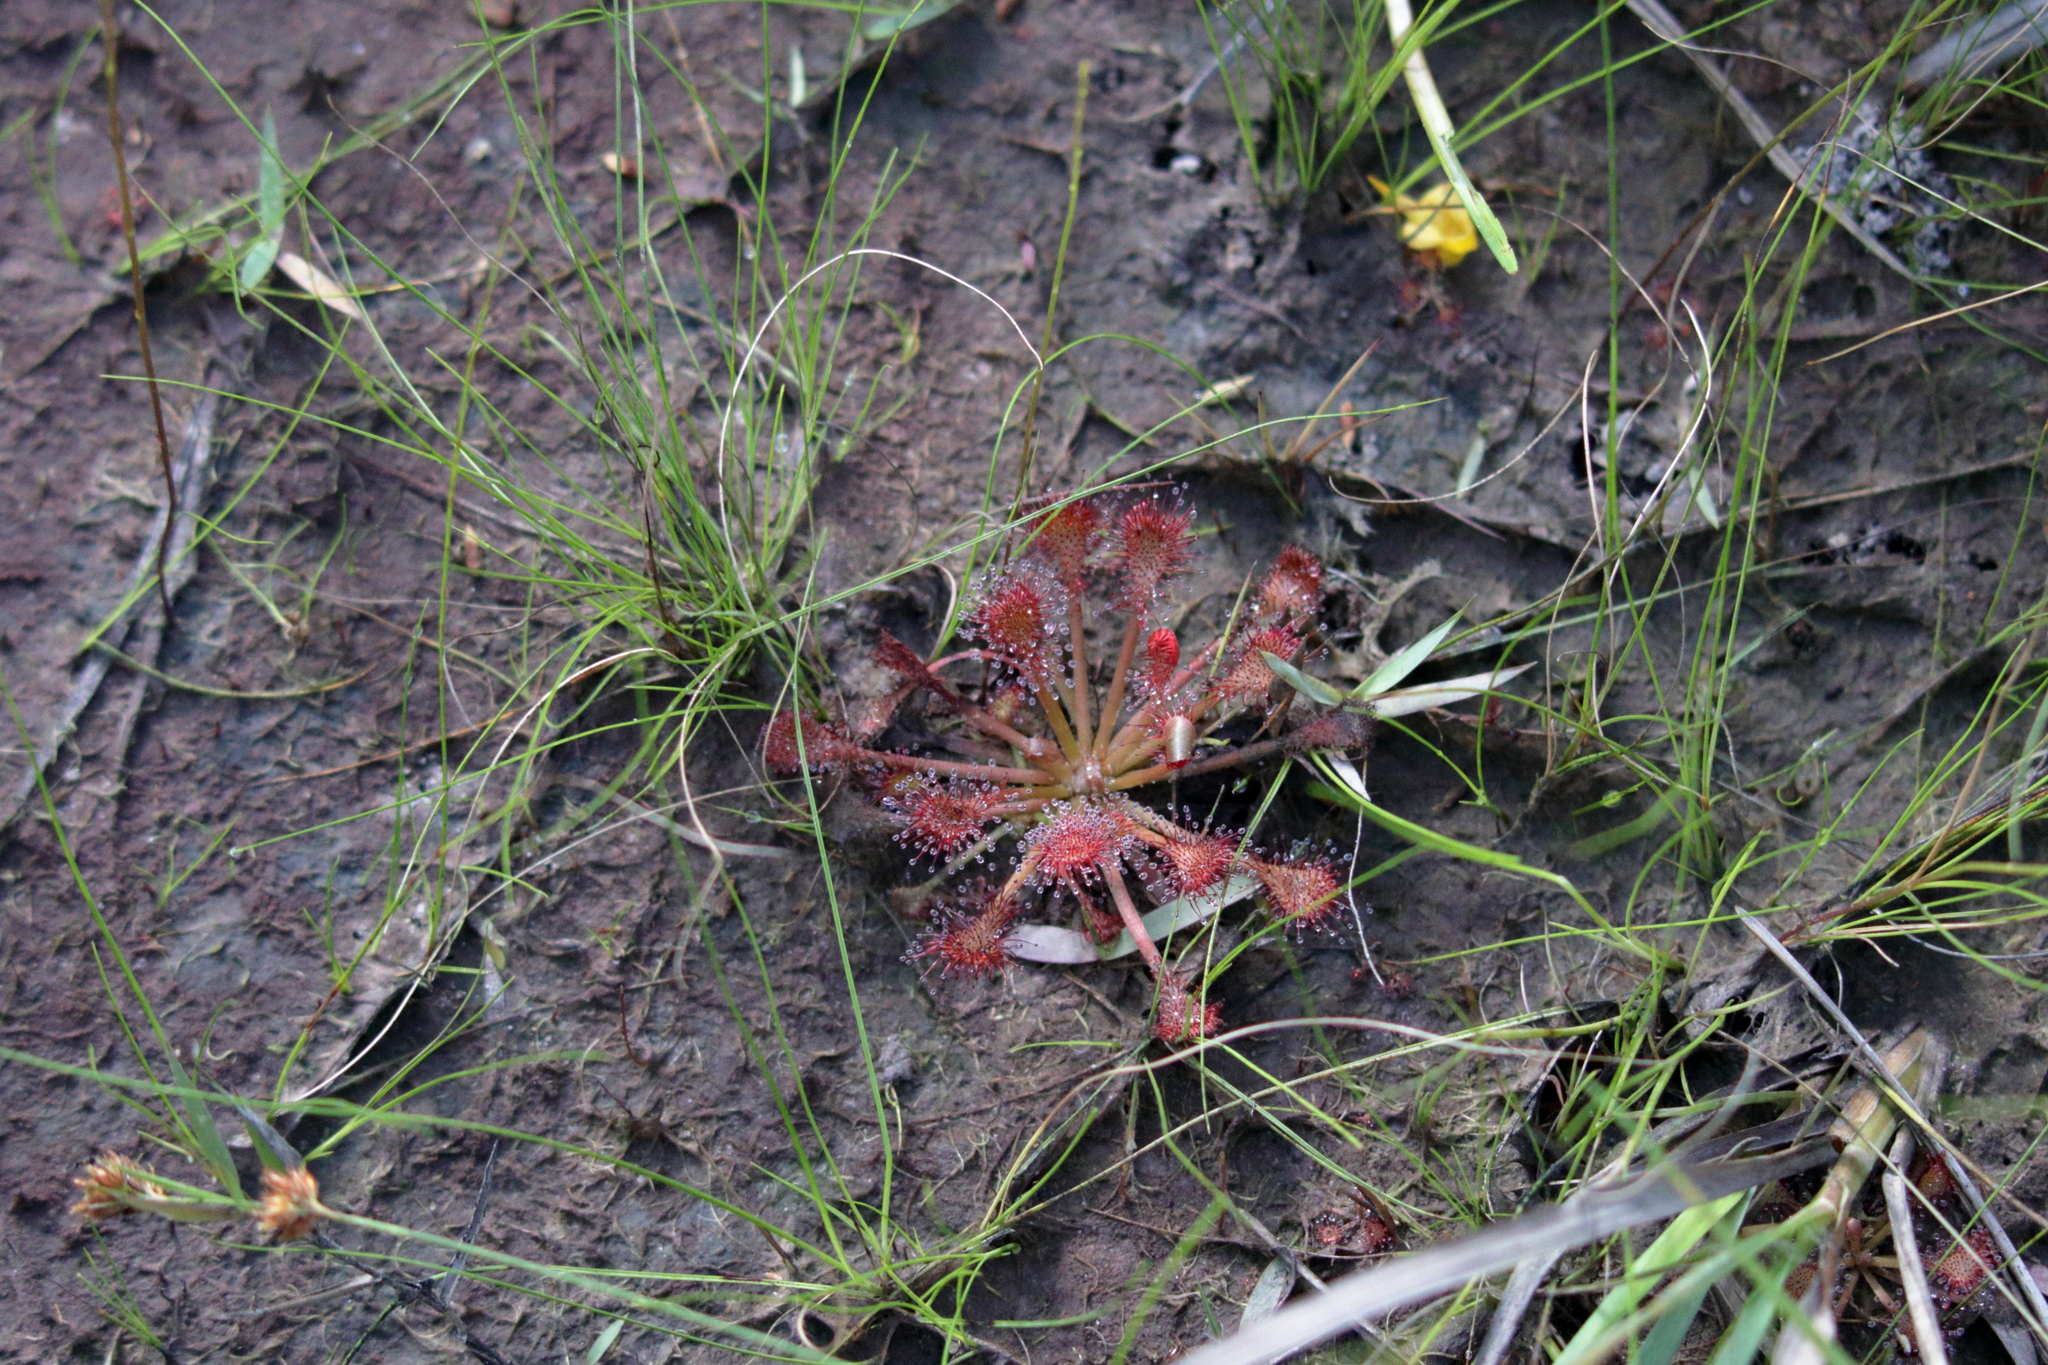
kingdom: Plantae
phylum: Tracheophyta
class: Magnoliopsida
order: Caryophyllales
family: Droseraceae
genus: Drosera
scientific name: Drosera capillaris
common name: Pink sundew
